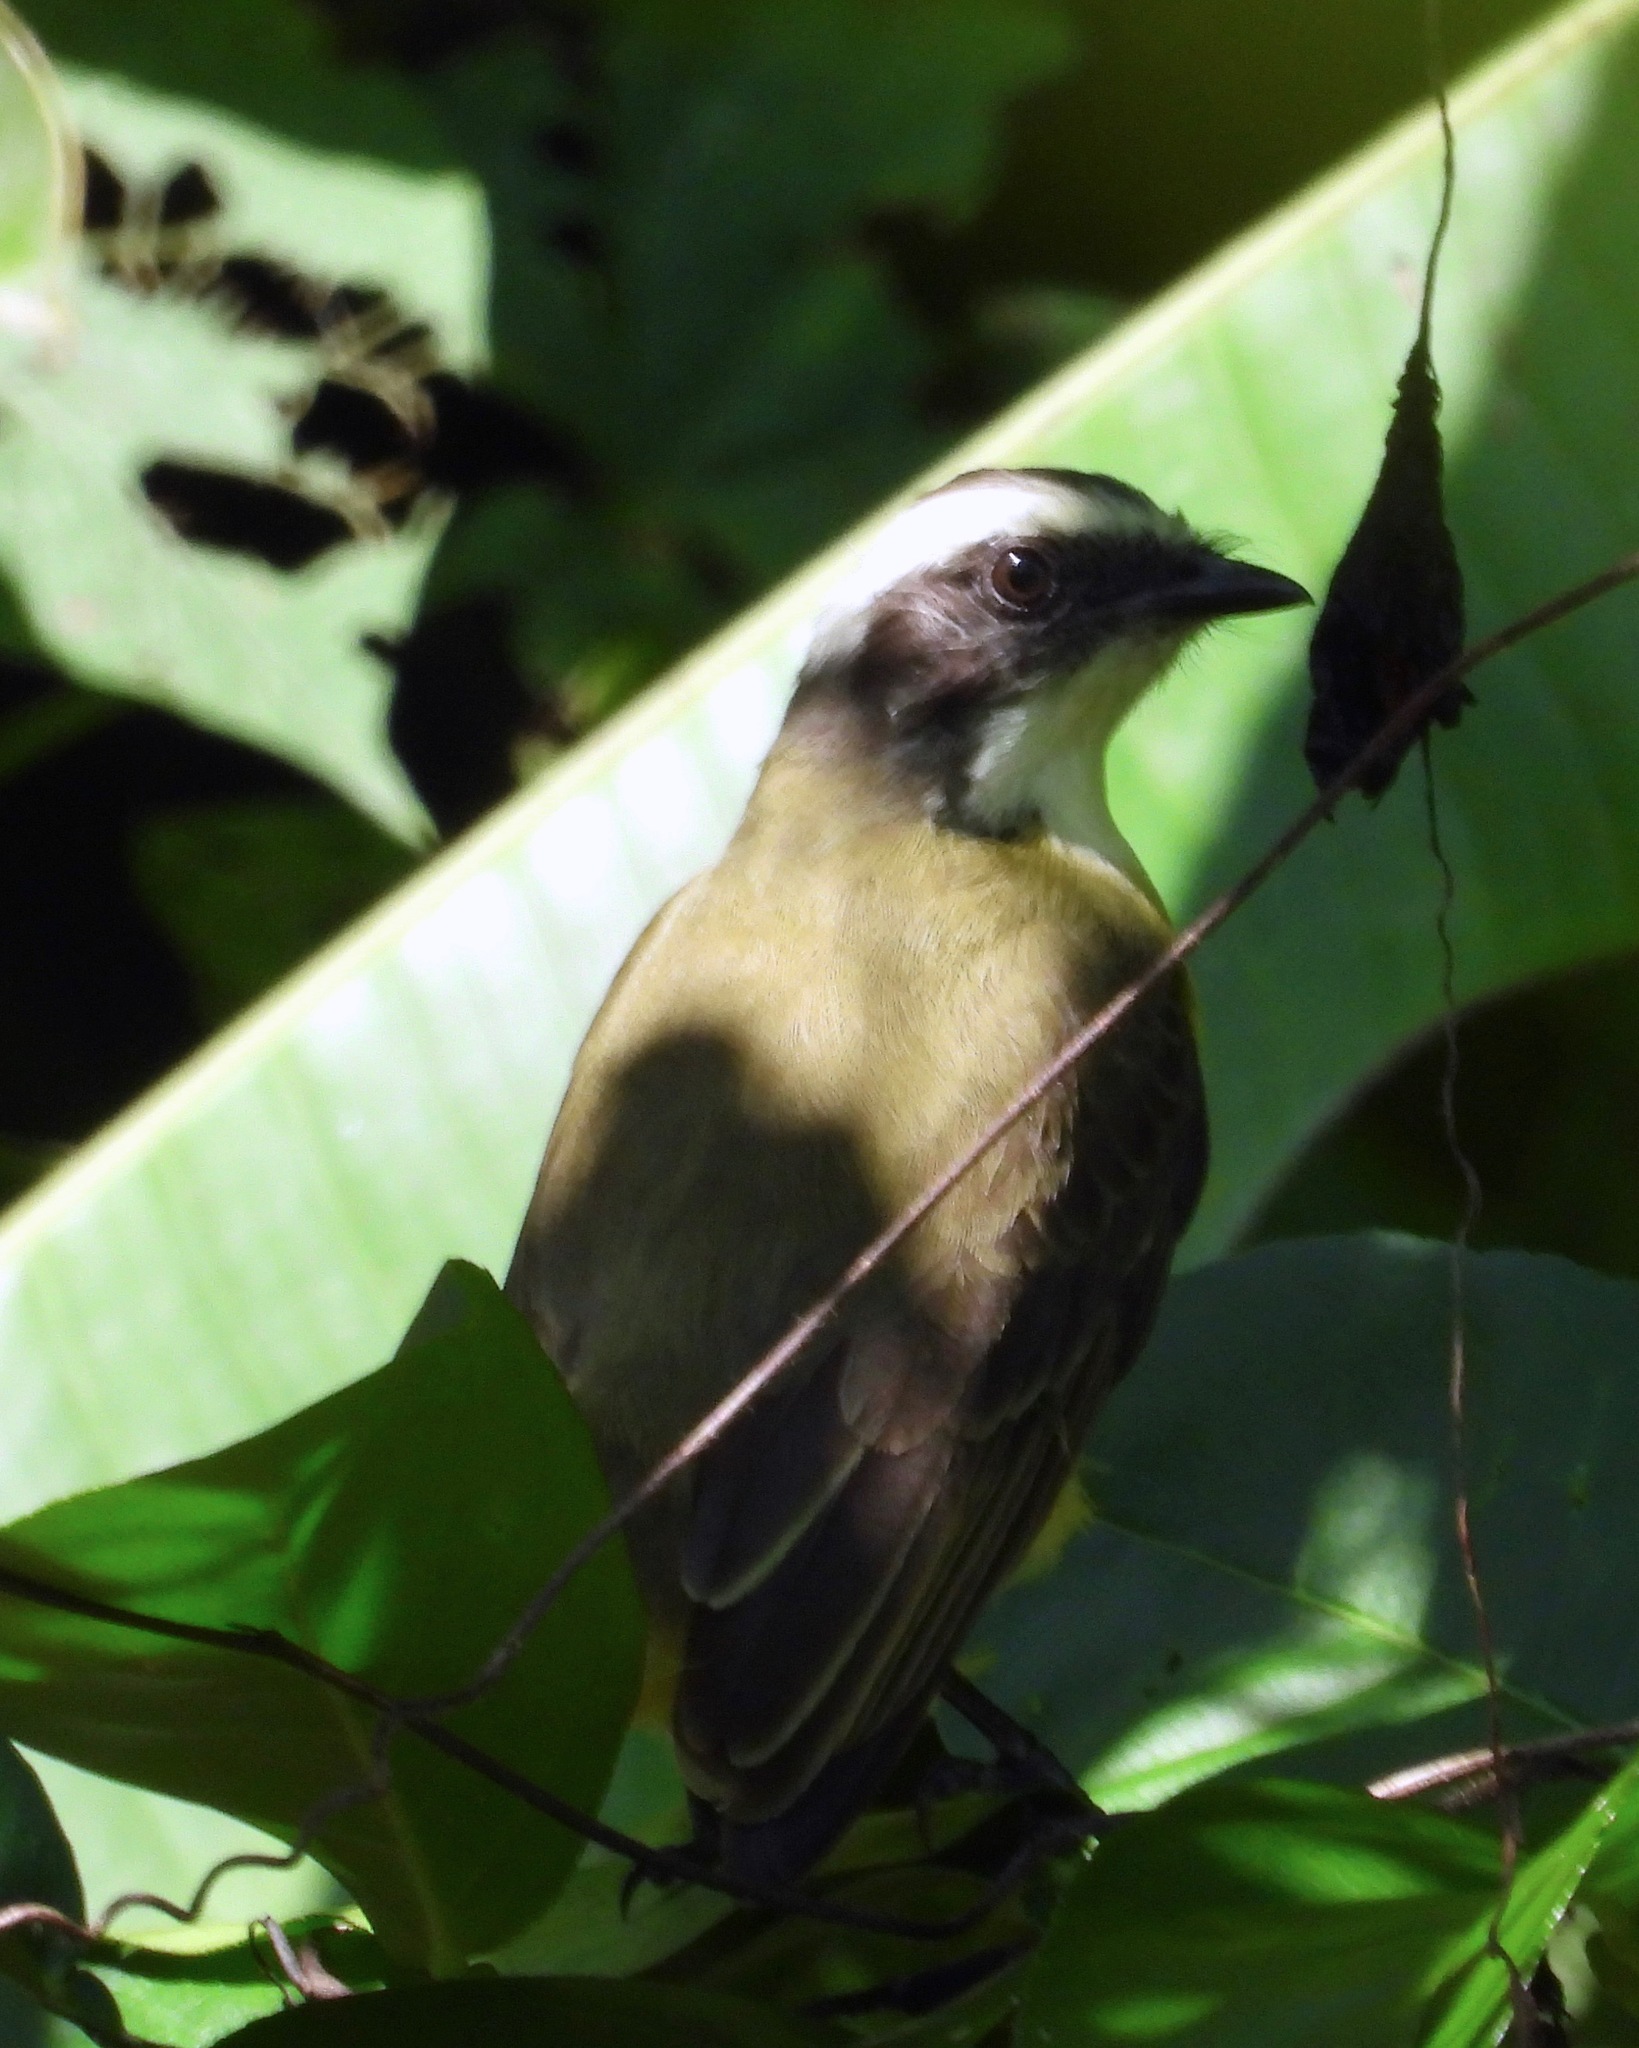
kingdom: Animalia
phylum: Chordata
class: Aves
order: Passeriformes
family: Tyrannidae
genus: Myiozetetes
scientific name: Myiozetetes similis
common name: Social flycatcher
